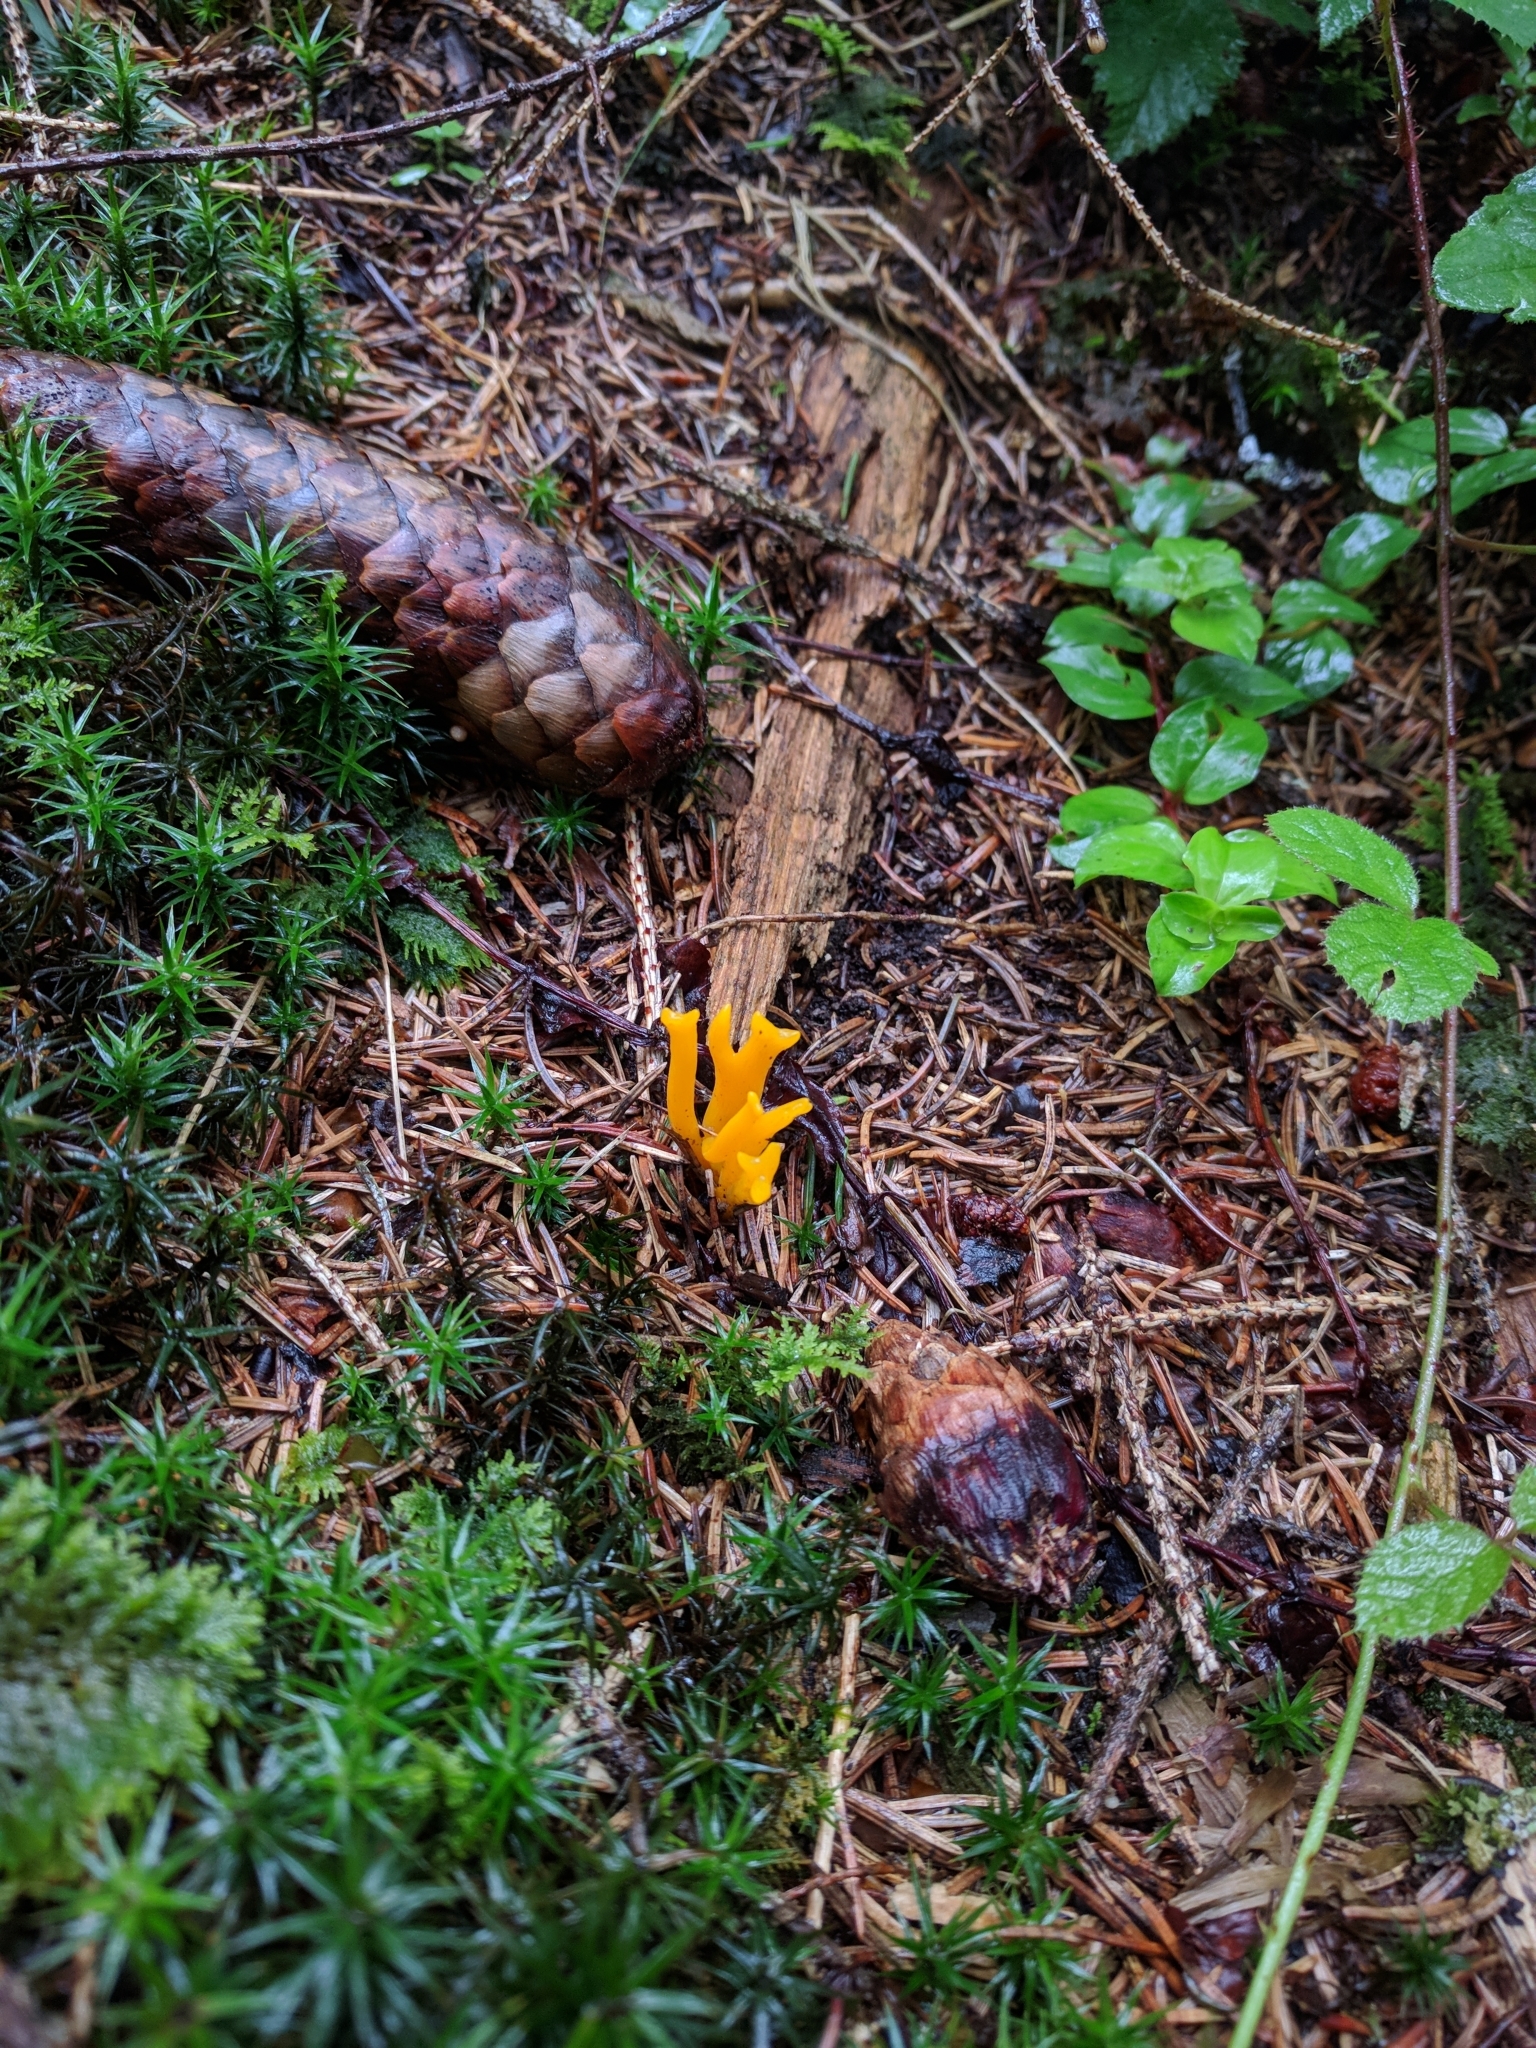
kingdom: Fungi
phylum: Basidiomycota
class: Dacrymycetes
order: Dacrymycetales
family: Dacrymycetaceae
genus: Calocera
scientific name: Calocera viscosa
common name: Yellow stagshorn
